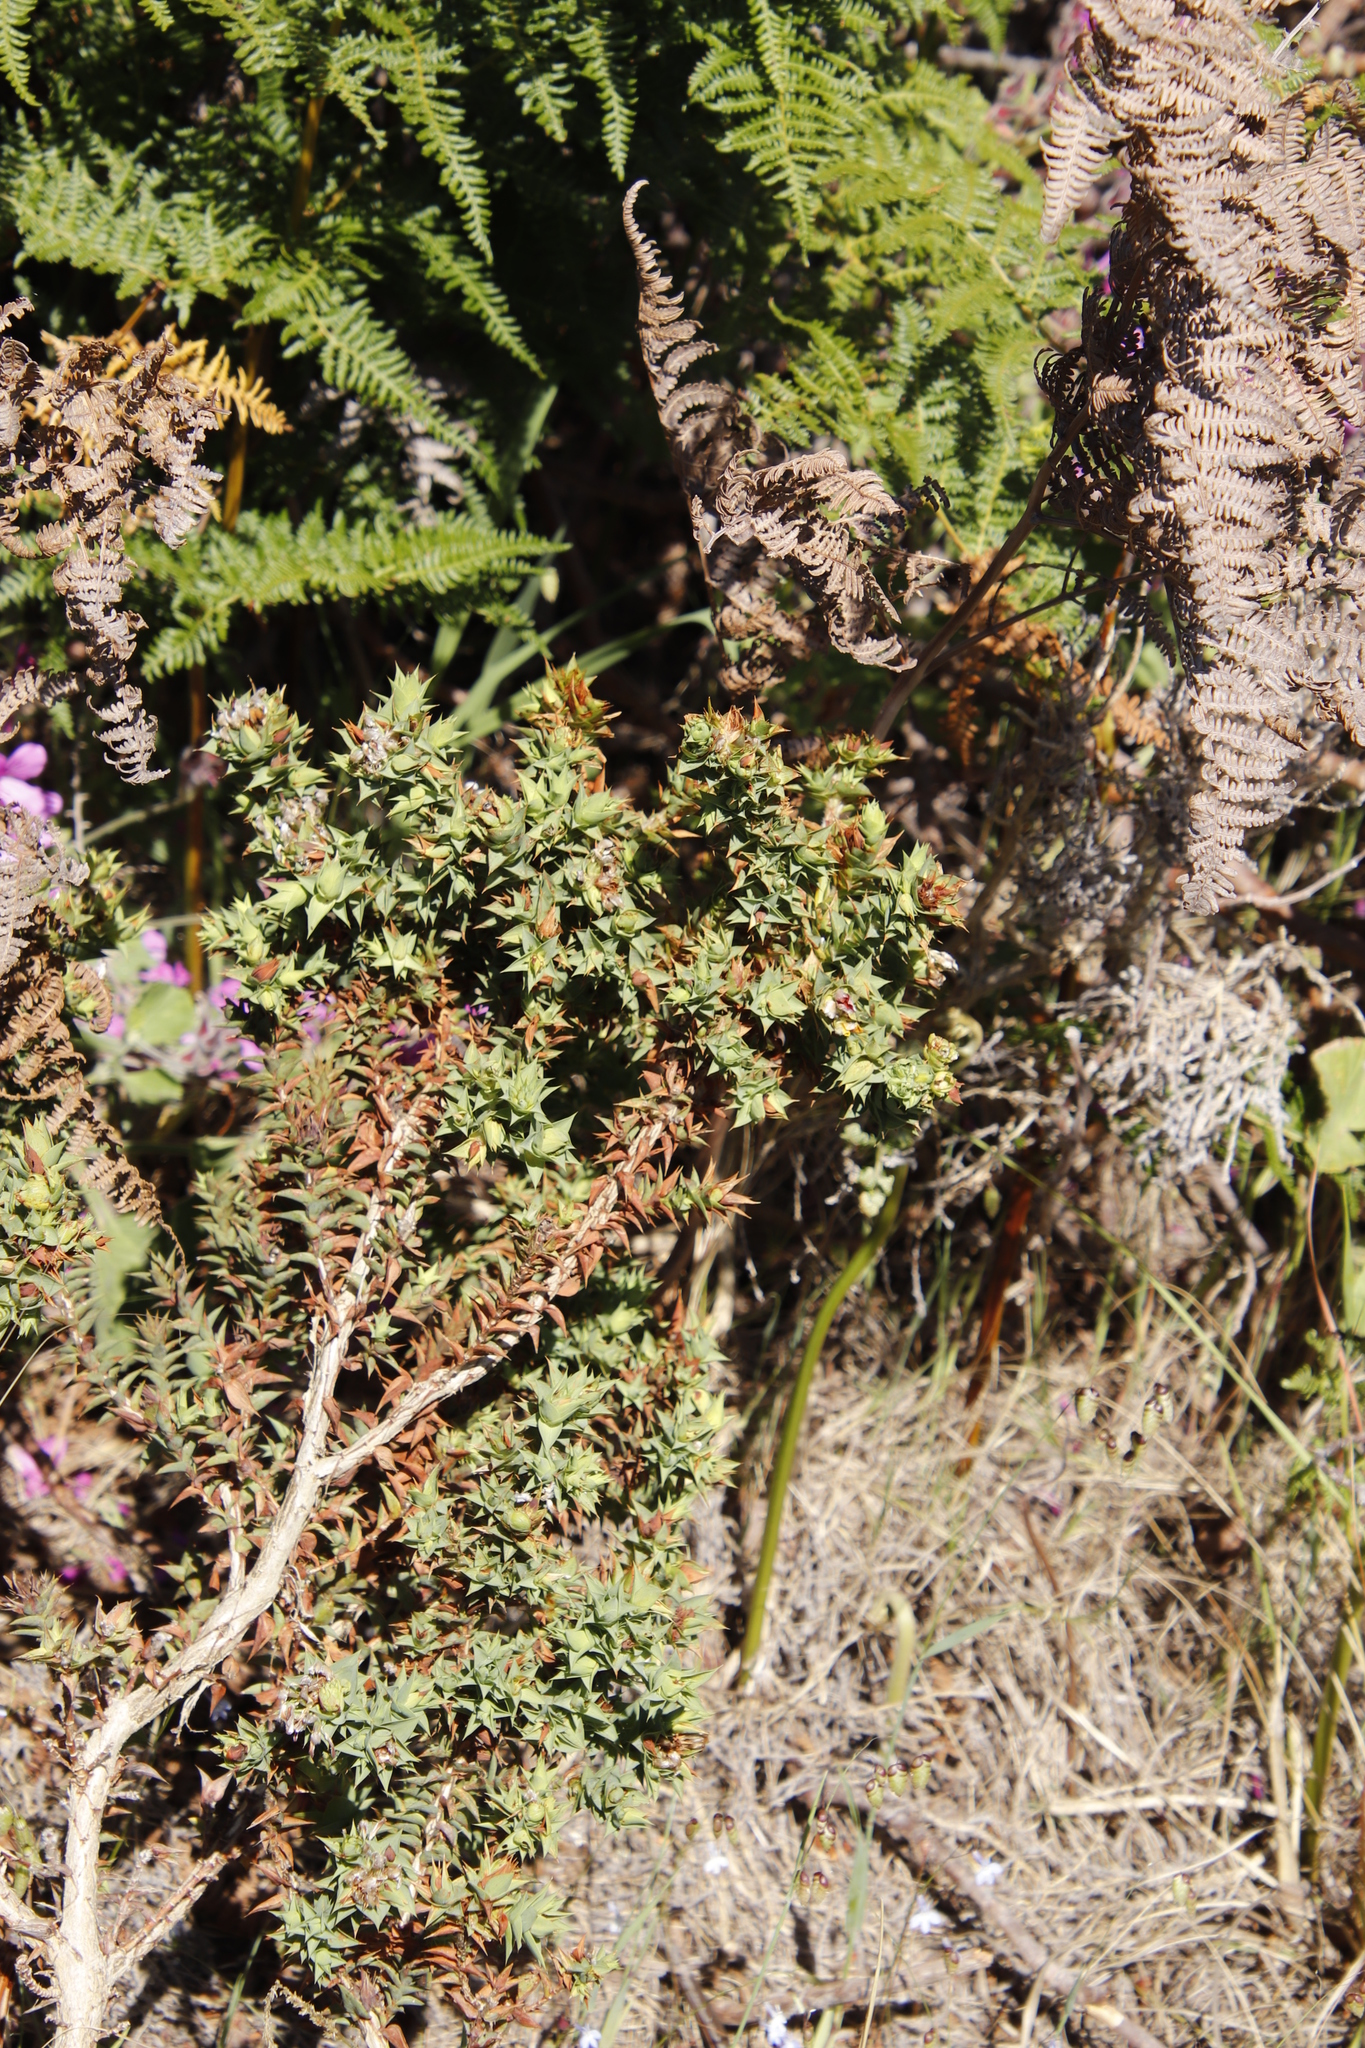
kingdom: Plantae
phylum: Tracheophyta
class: Magnoliopsida
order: Fabales
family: Fabaceae
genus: Aspalathus
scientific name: Aspalathus cordata
